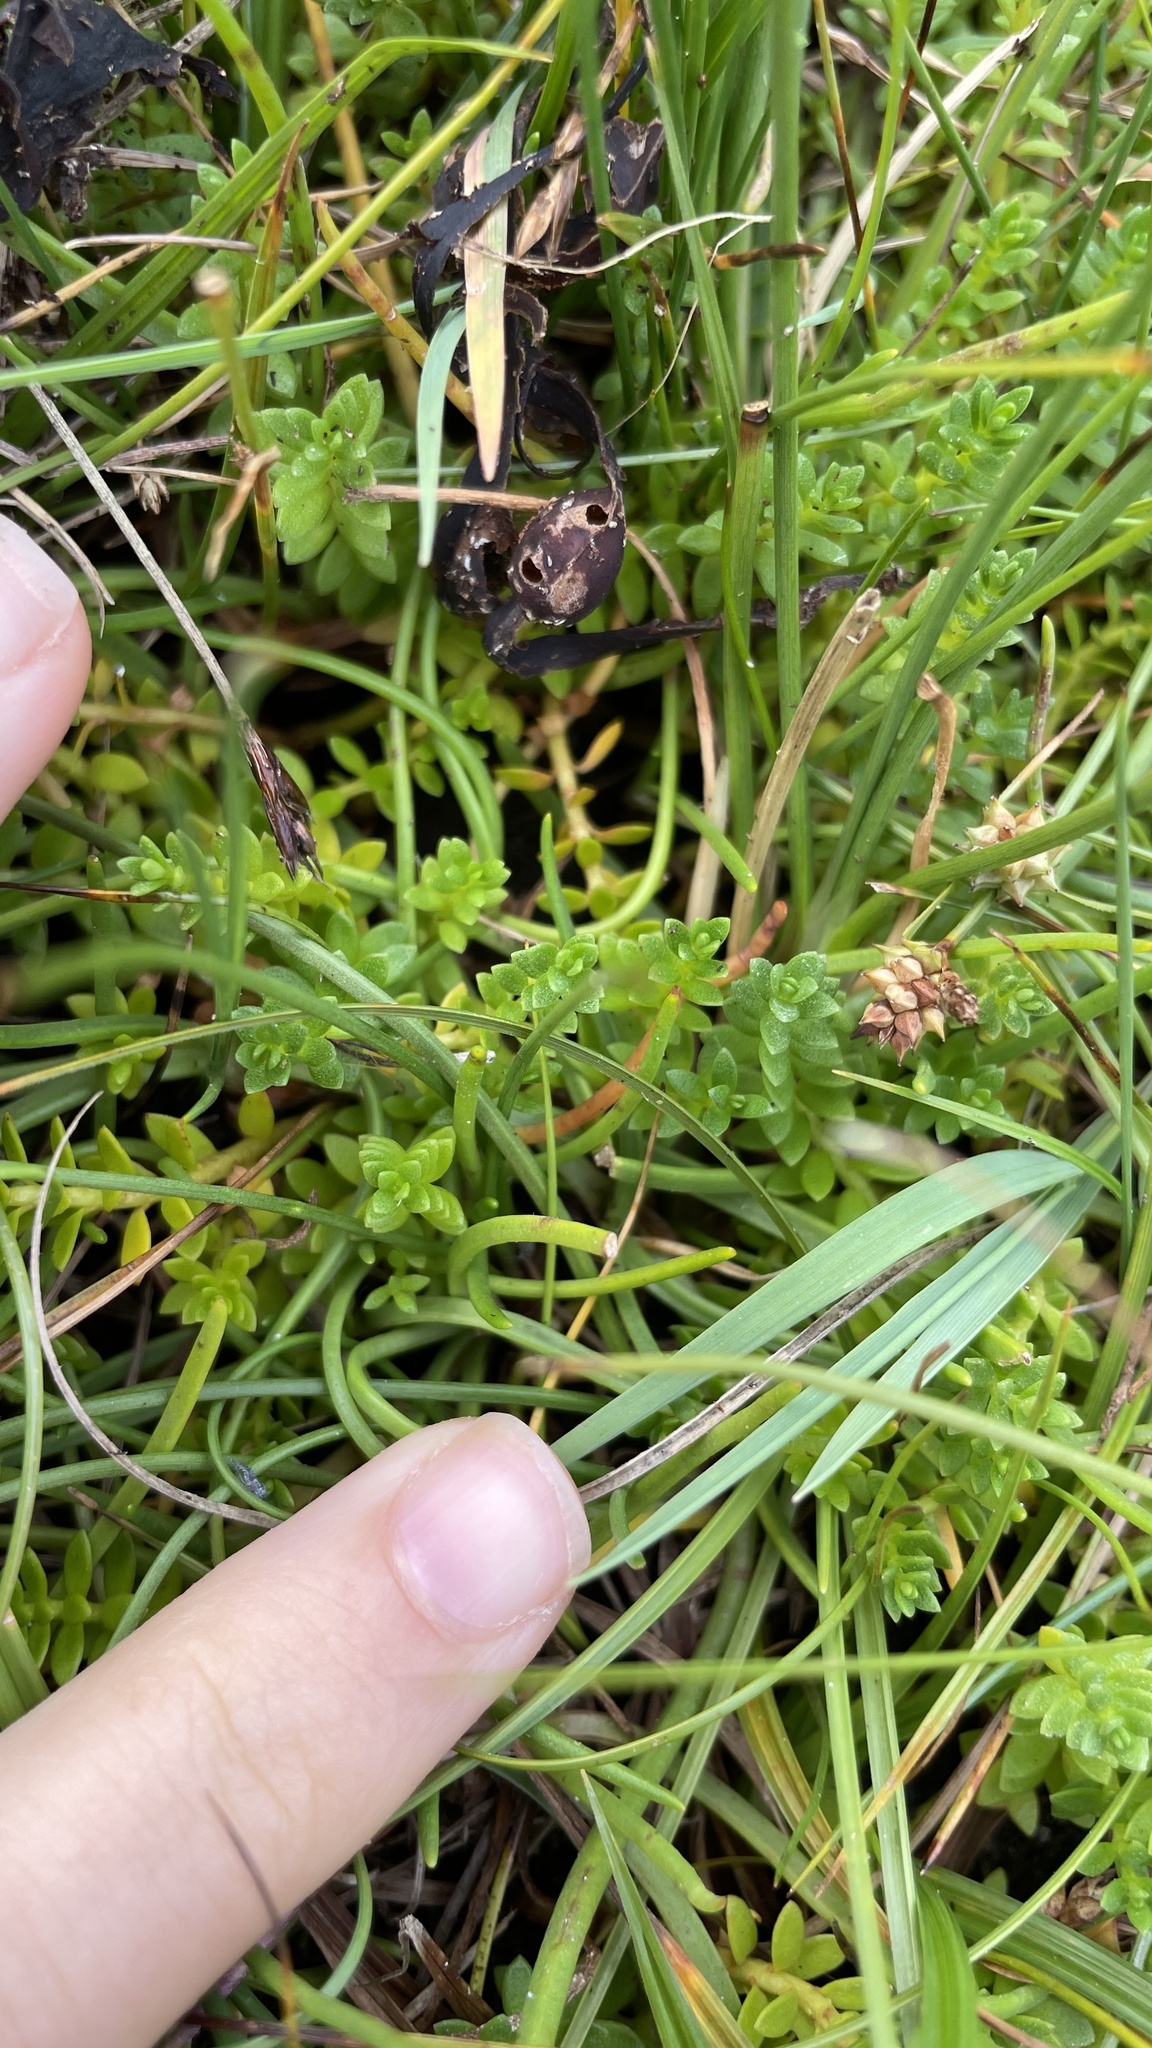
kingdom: Plantae
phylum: Tracheophyta
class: Magnoliopsida
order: Ericales
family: Primulaceae
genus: Lysimachia
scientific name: Lysimachia maritima
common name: Sea milkwort
